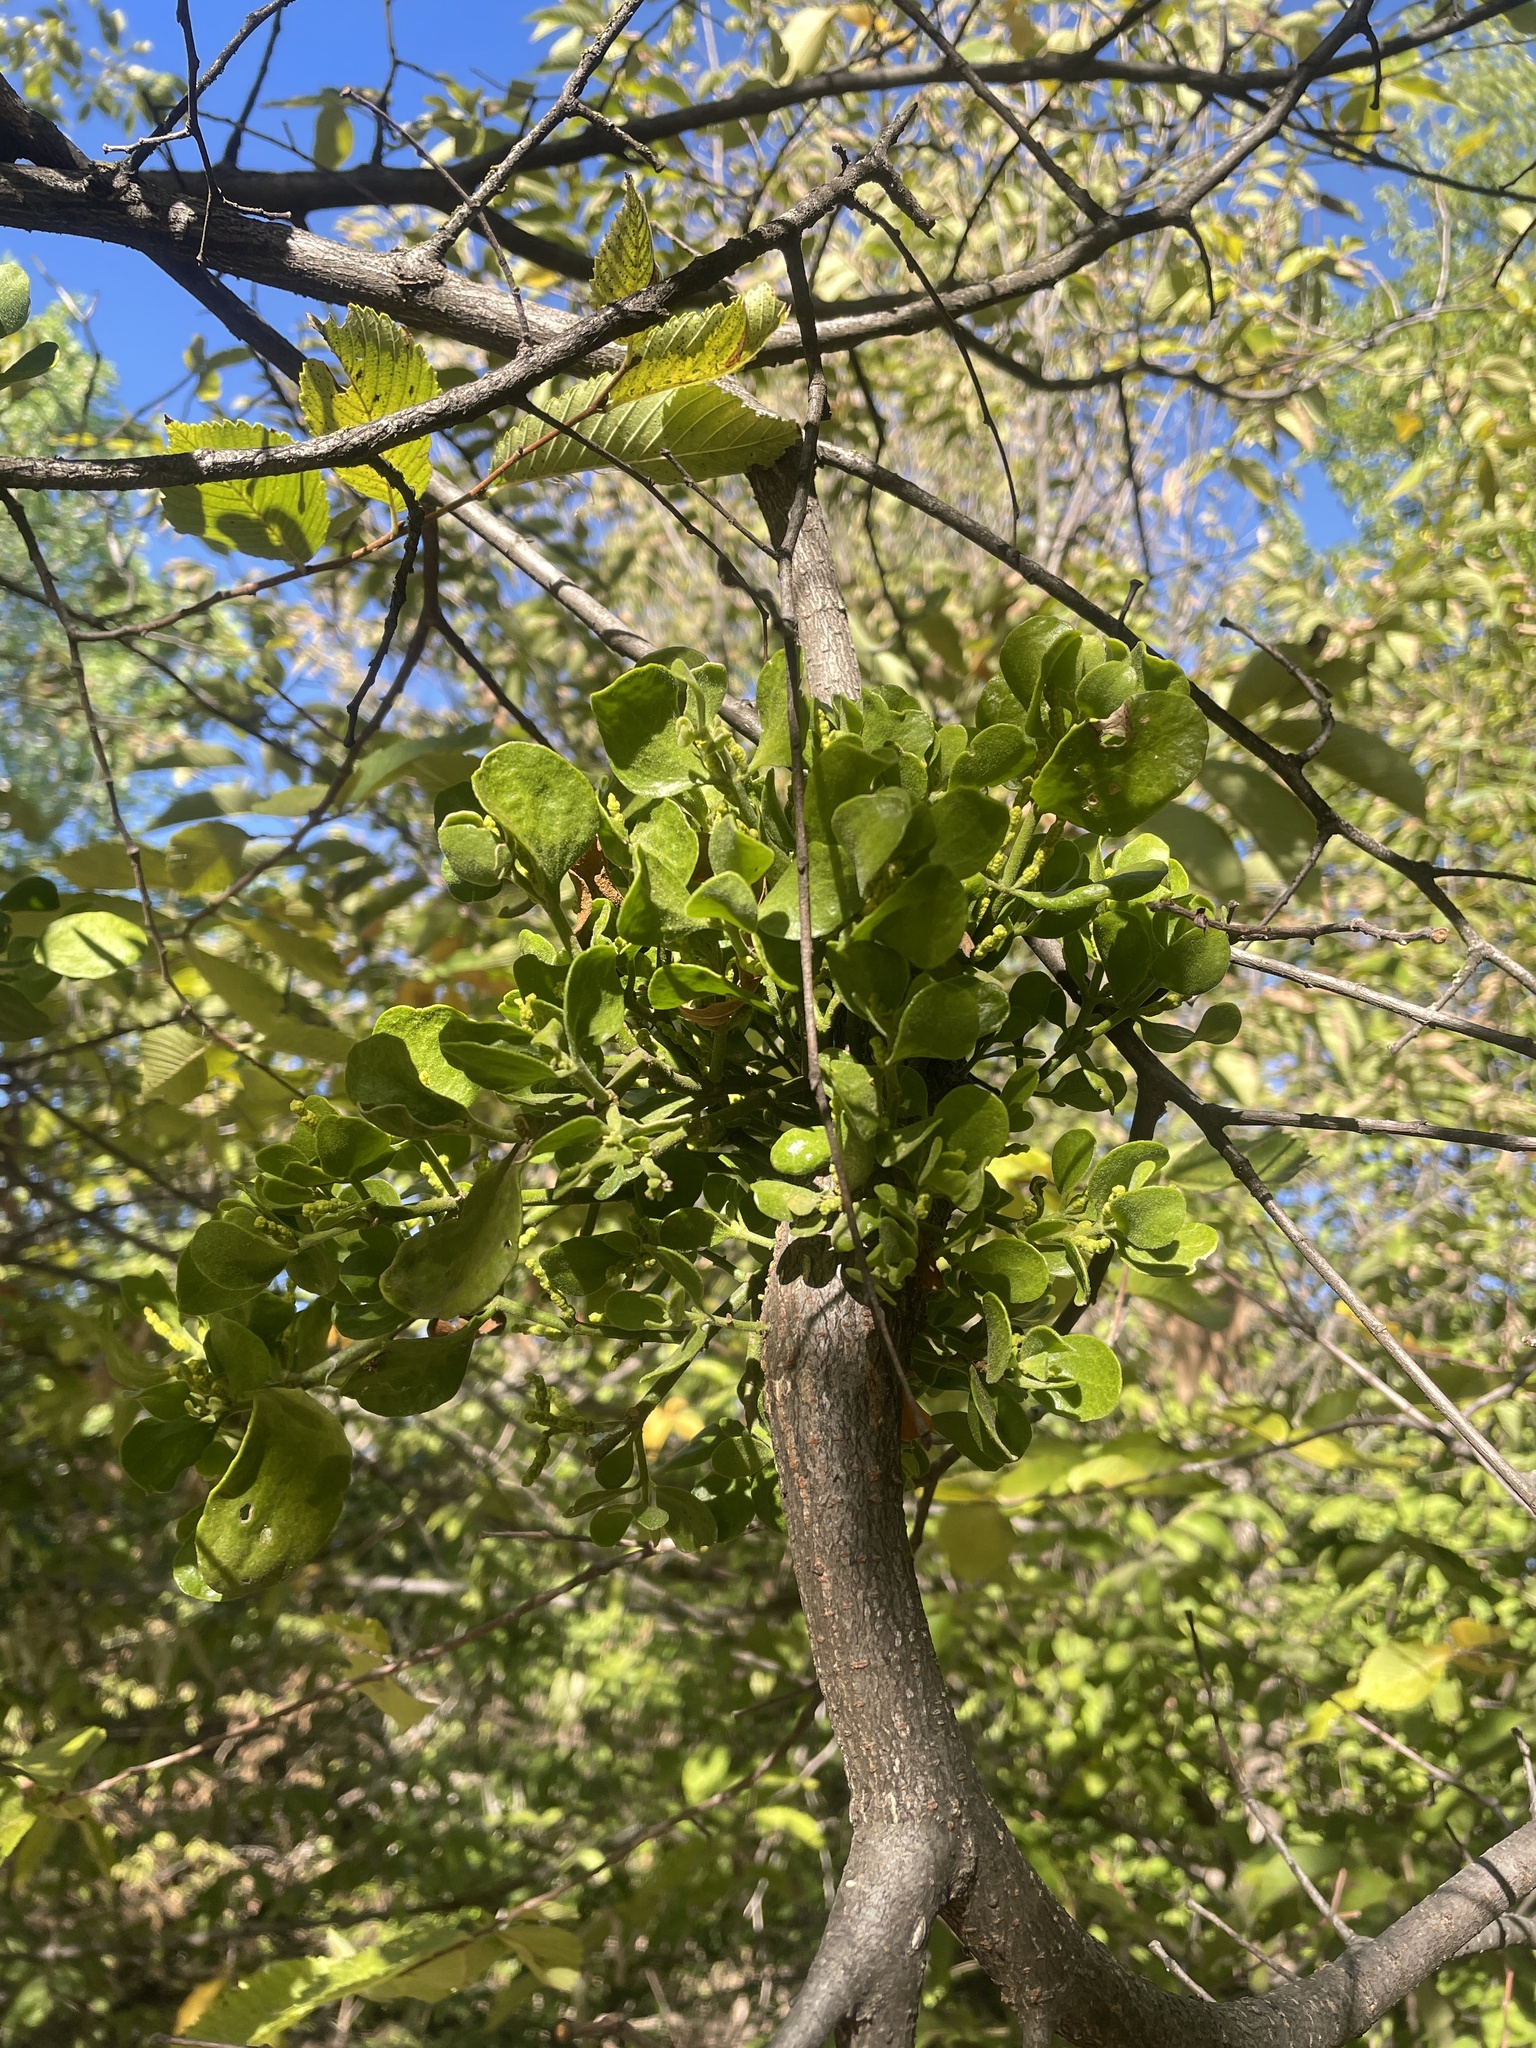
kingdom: Plantae
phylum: Tracheophyta
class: Magnoliopsida
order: Santalales
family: Viscaceae
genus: Phoradendron
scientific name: Phoradendron leucarpum
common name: Pacific mistletoe
